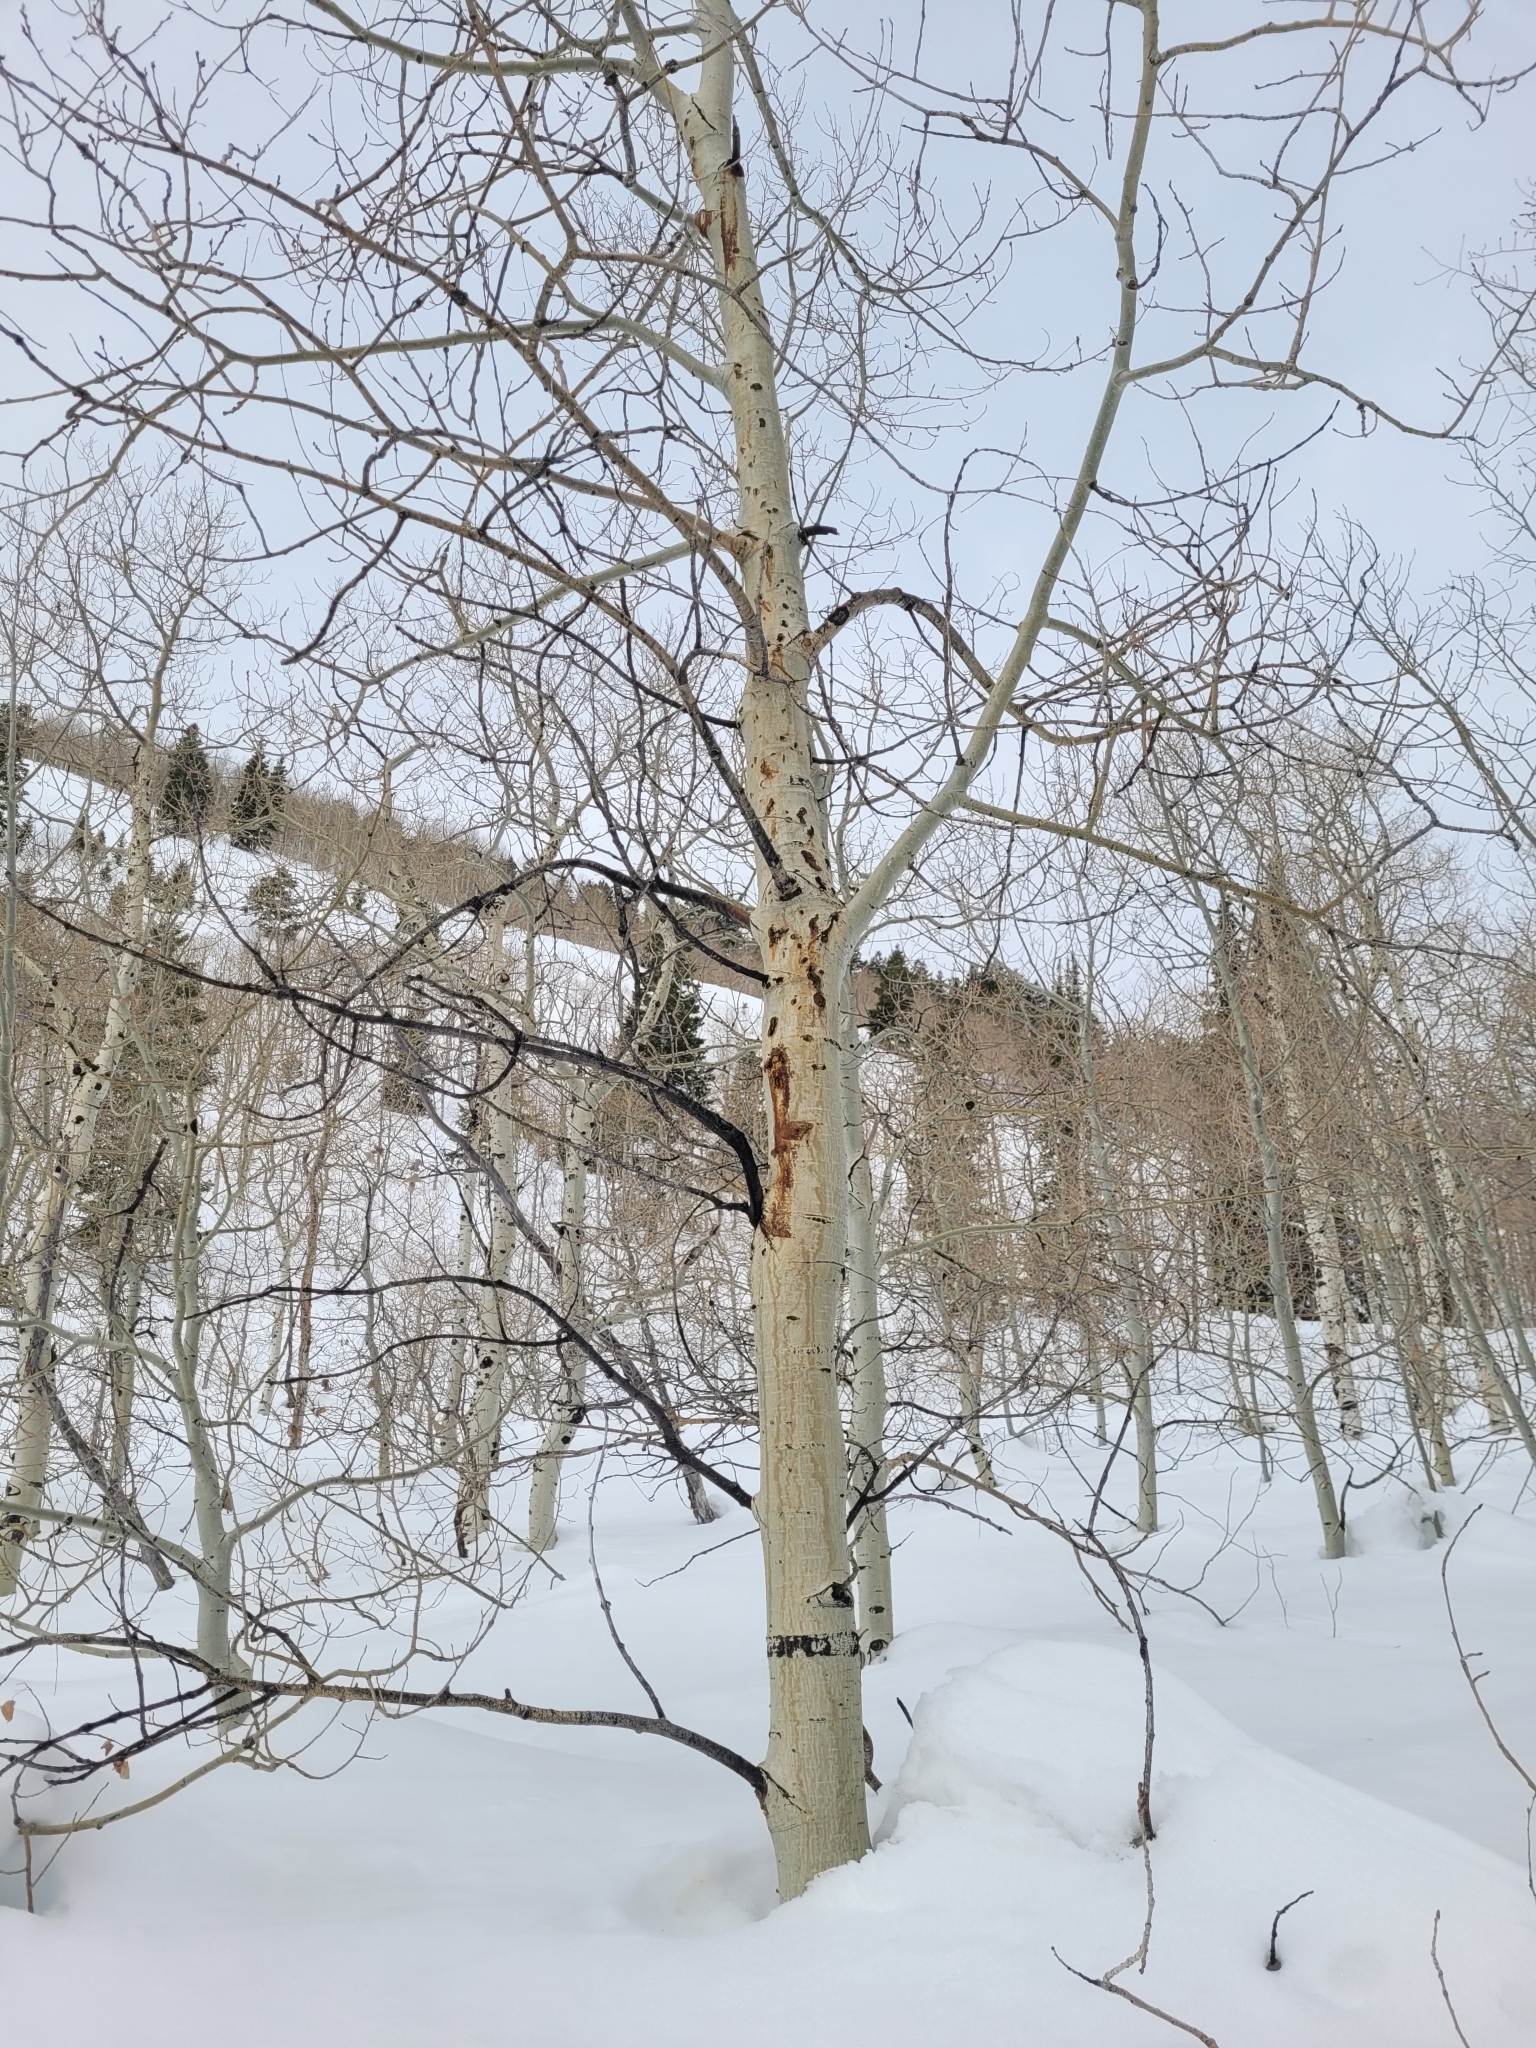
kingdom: Plantae
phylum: Tracheophyta
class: Magnoliopsida
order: Malpighiales
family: Salicaceae
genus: Populus
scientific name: Populus tremuloides
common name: Quaking aspen
